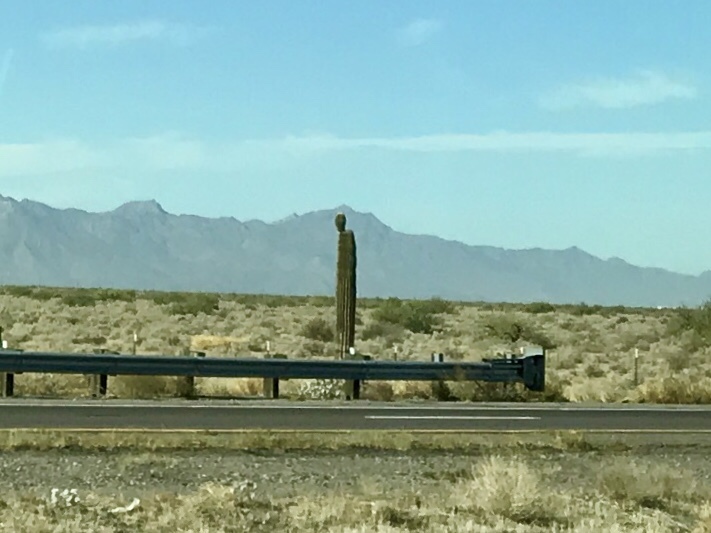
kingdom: Plantae
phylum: Tracheophyta
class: Magnoliopsida
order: Caryophyllales
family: Cactaceae
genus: Carnegiea
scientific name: Carnegiea gigantea
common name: Saguaro
